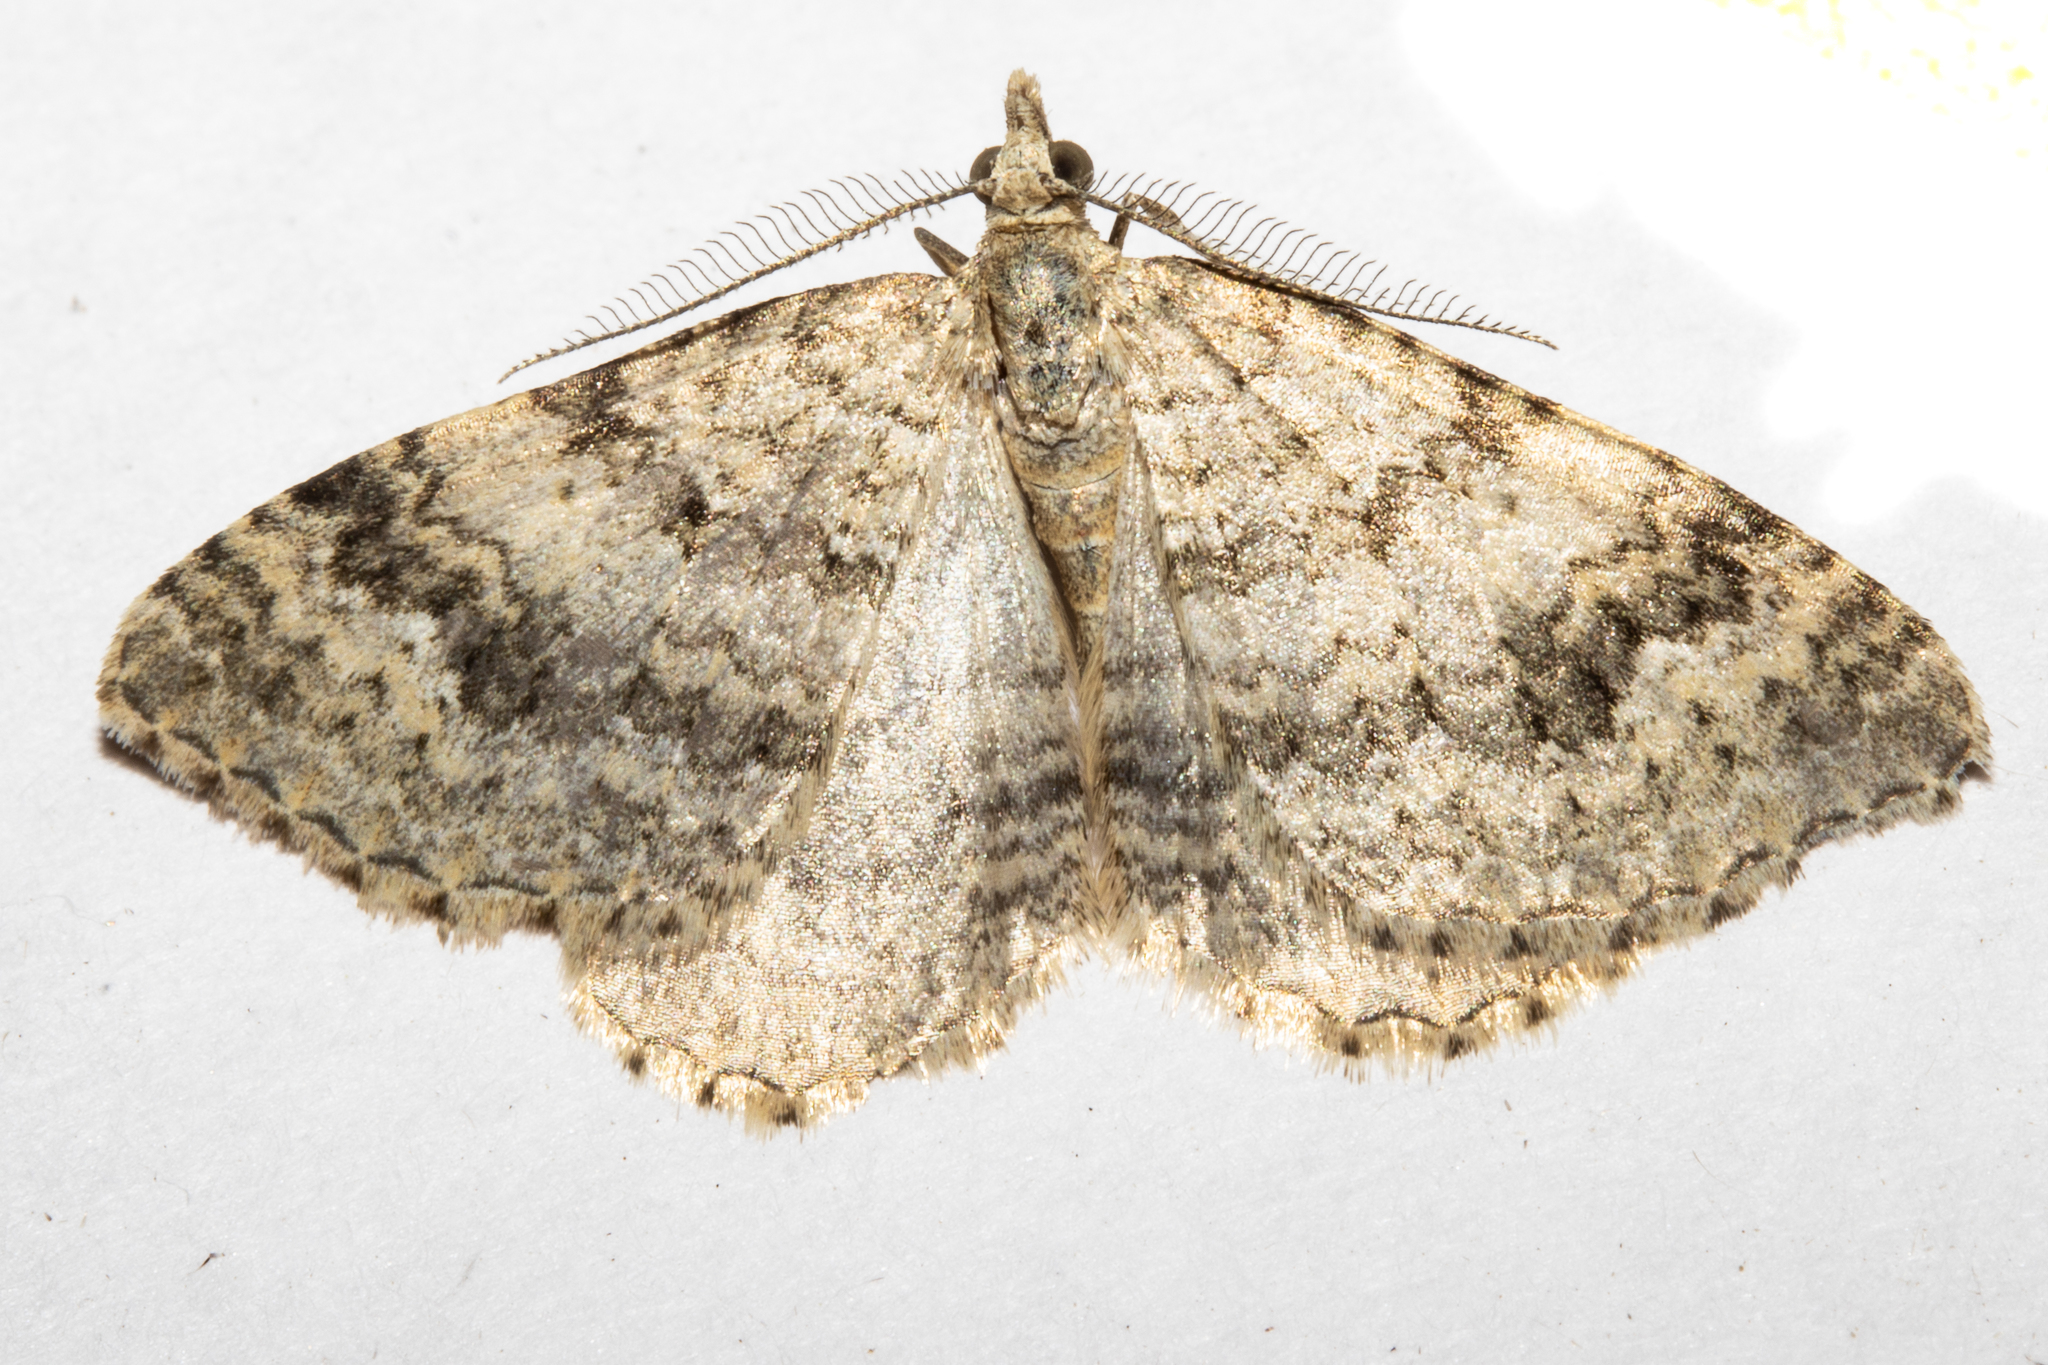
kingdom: Animalia
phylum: Arthropoda
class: Insecta
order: Lepidoptera
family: Geometridae
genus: Helastia
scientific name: Helastia corcularia
